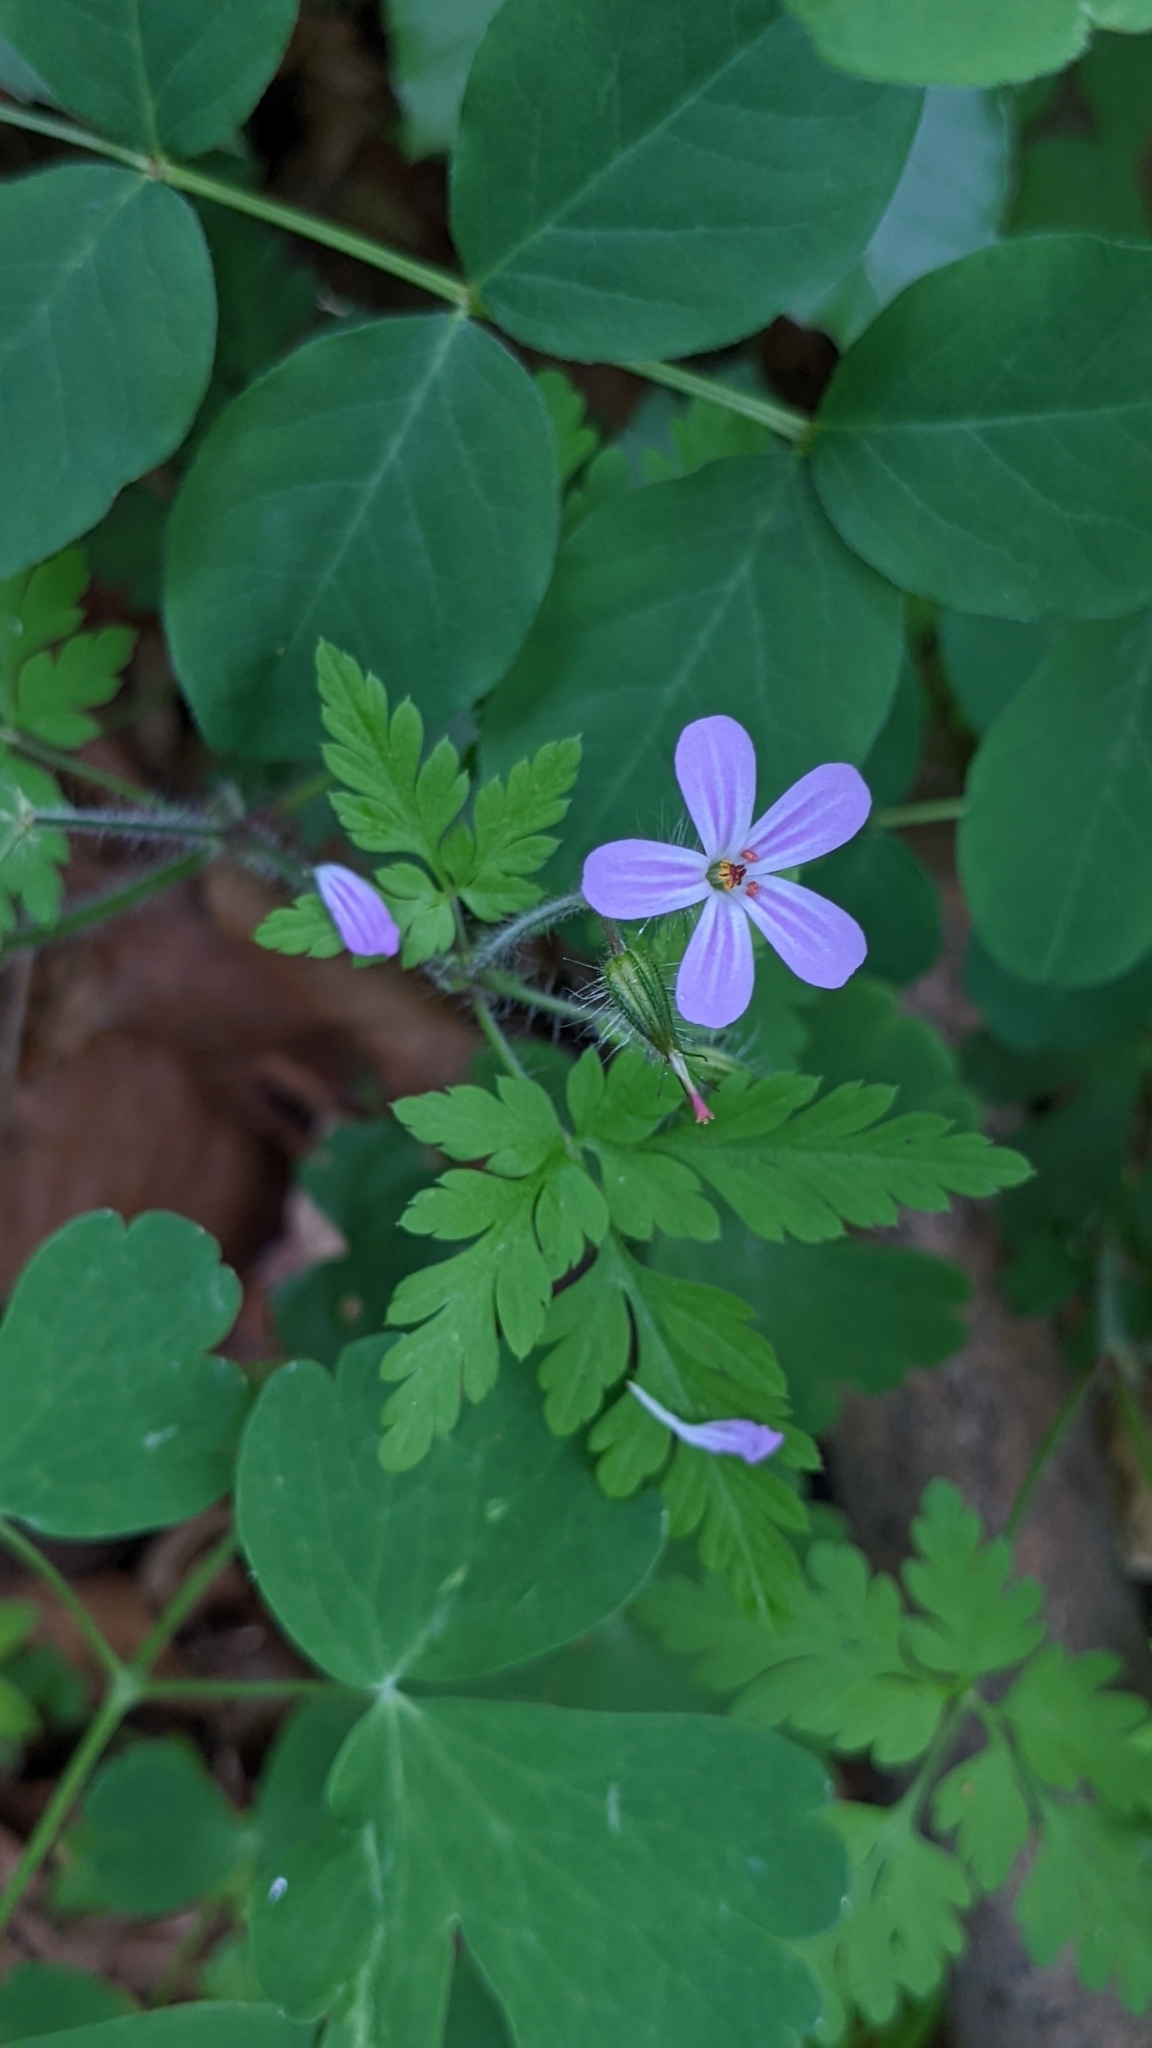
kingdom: Plantae
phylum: Tracheophyta
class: Magnoliopsida
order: Geraniales
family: Geraniaceae
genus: Geranium
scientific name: Geranium robertianum
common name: Herb-robert
